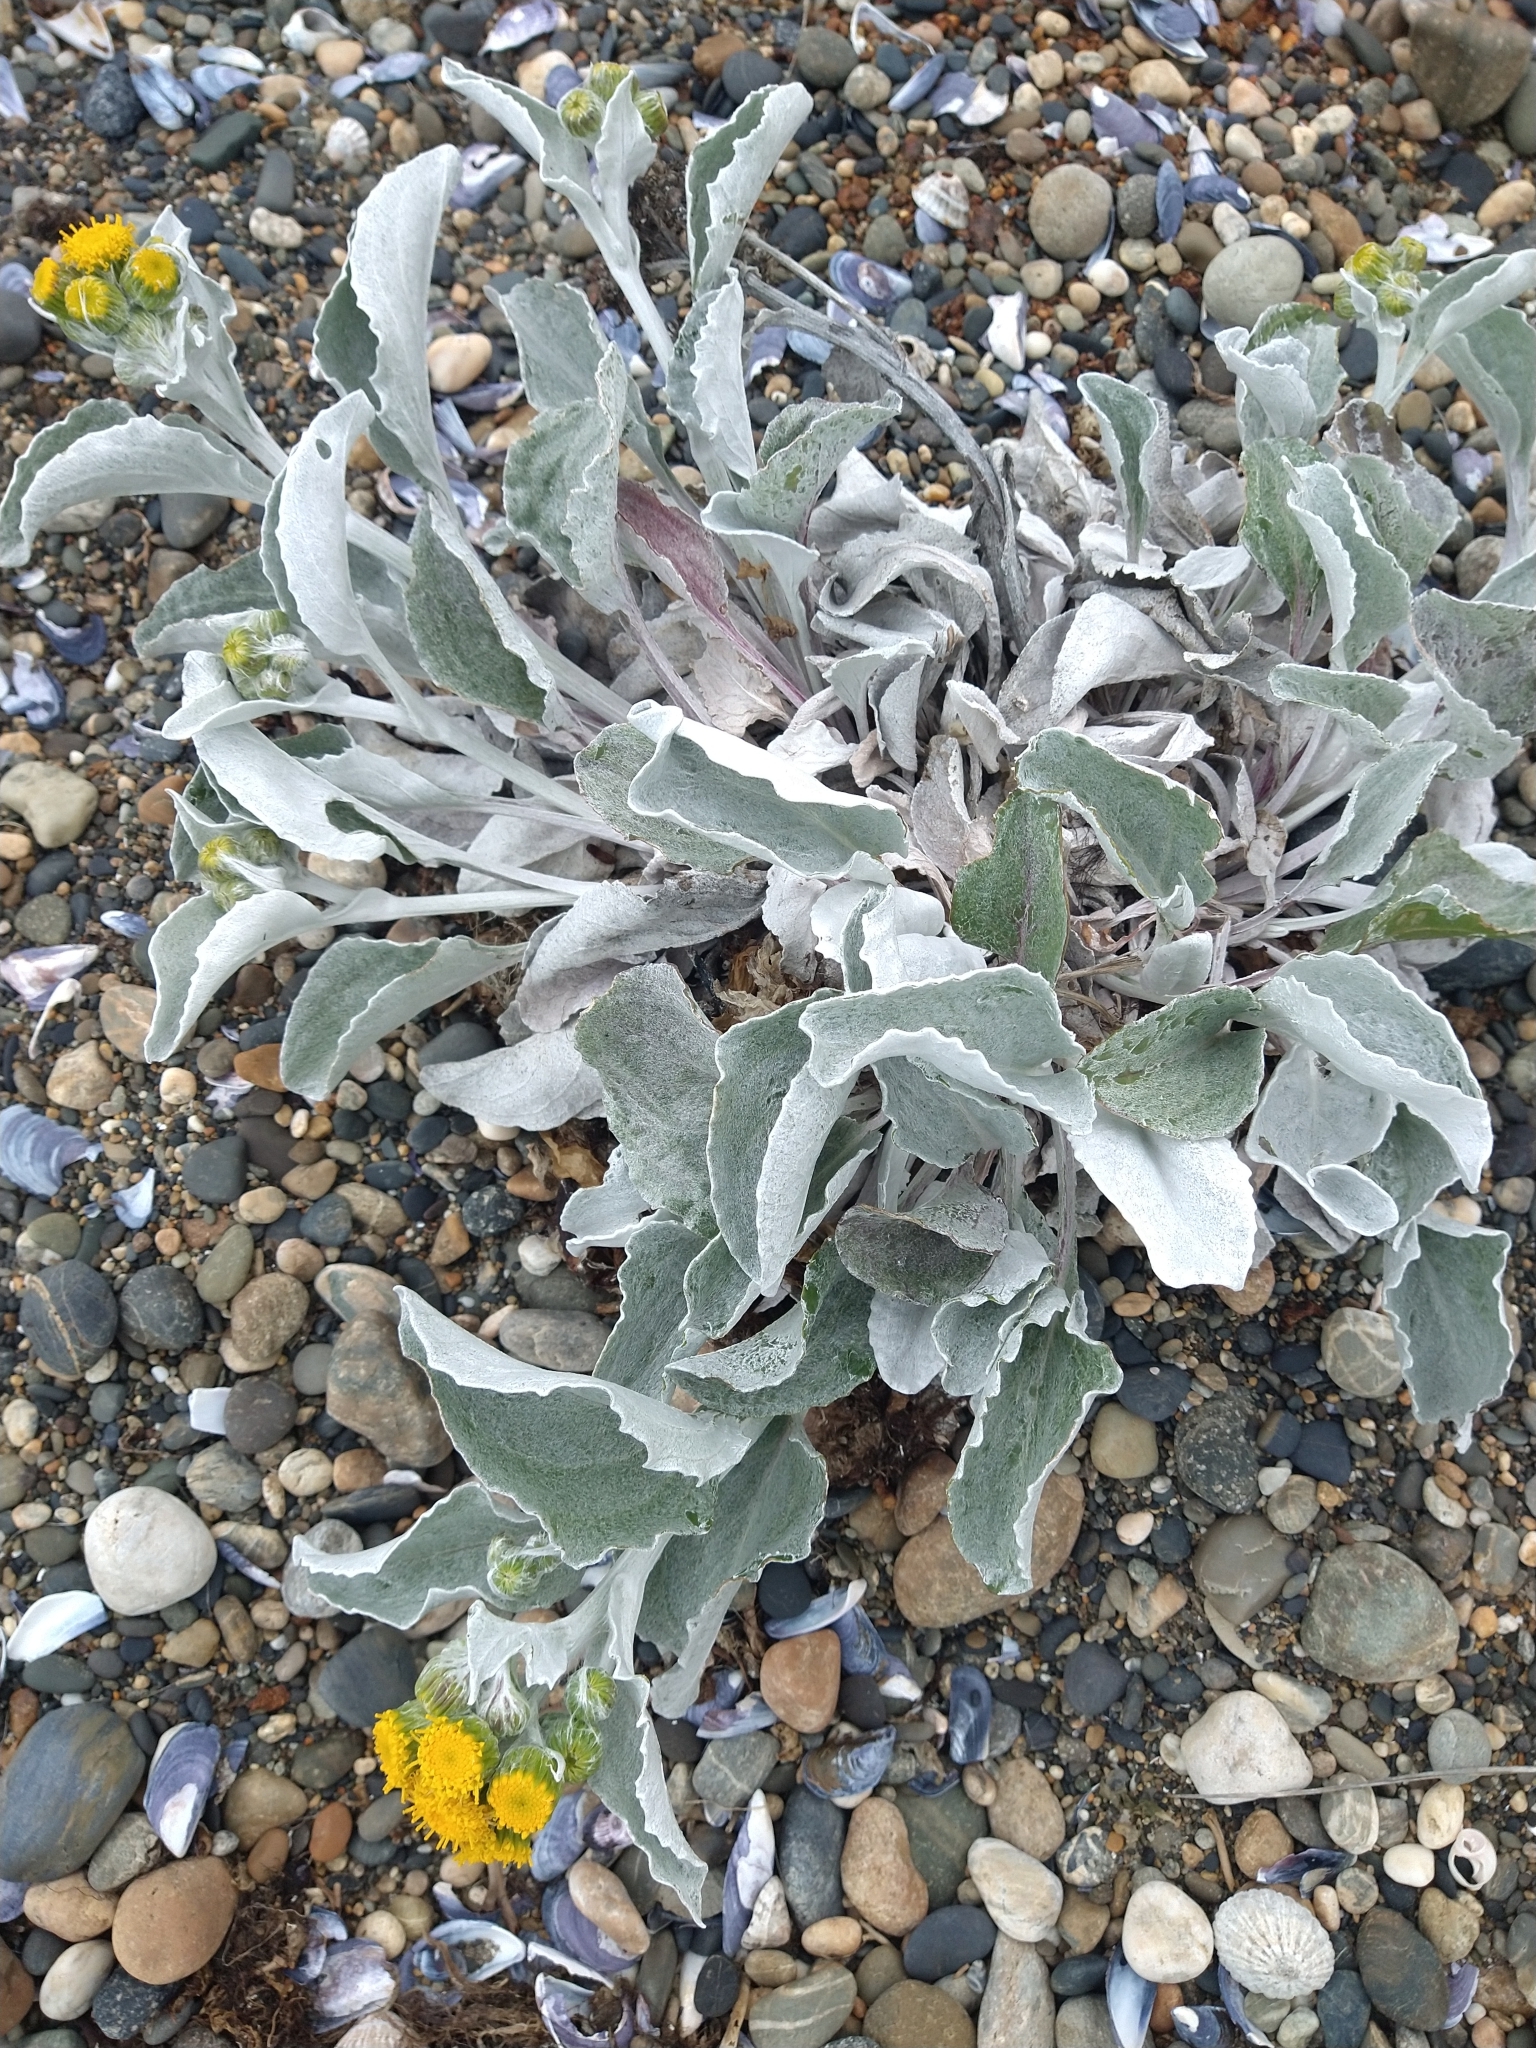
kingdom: Plantae
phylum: Tracheophyta
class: Magnoliopsida
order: Asterales
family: Asteraceae
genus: Senecio
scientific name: Senecio candidans
